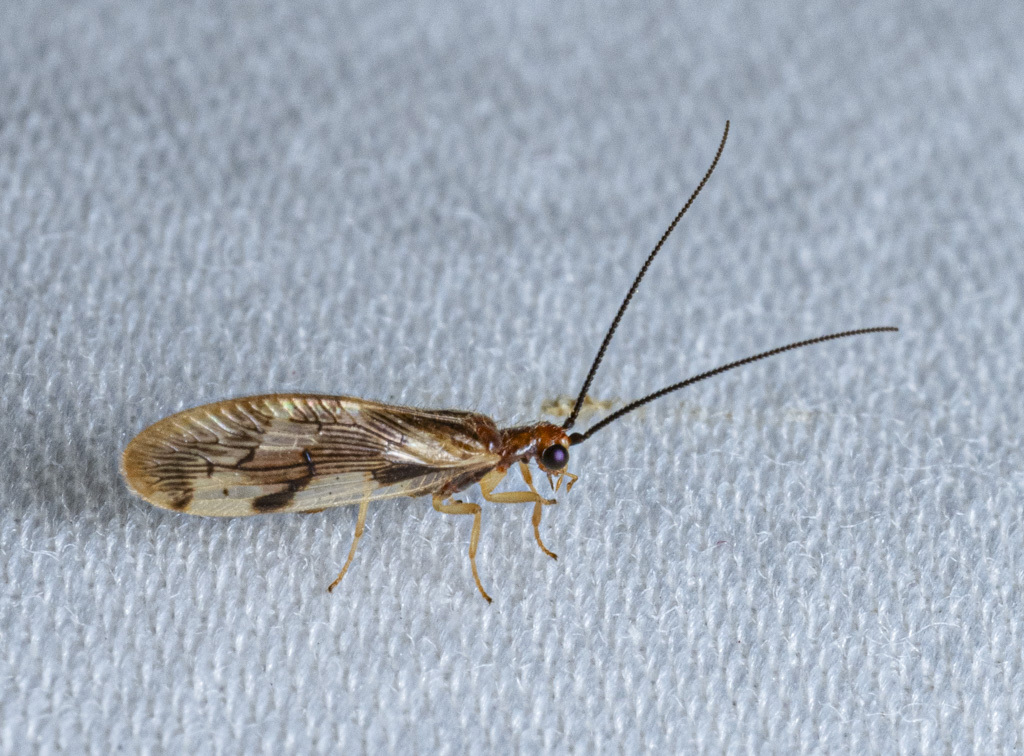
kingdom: Animalia
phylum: Arthropoda
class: Insecta
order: Neuroptera
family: Sisyridae
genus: Climacia
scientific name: Climacia areolaris
